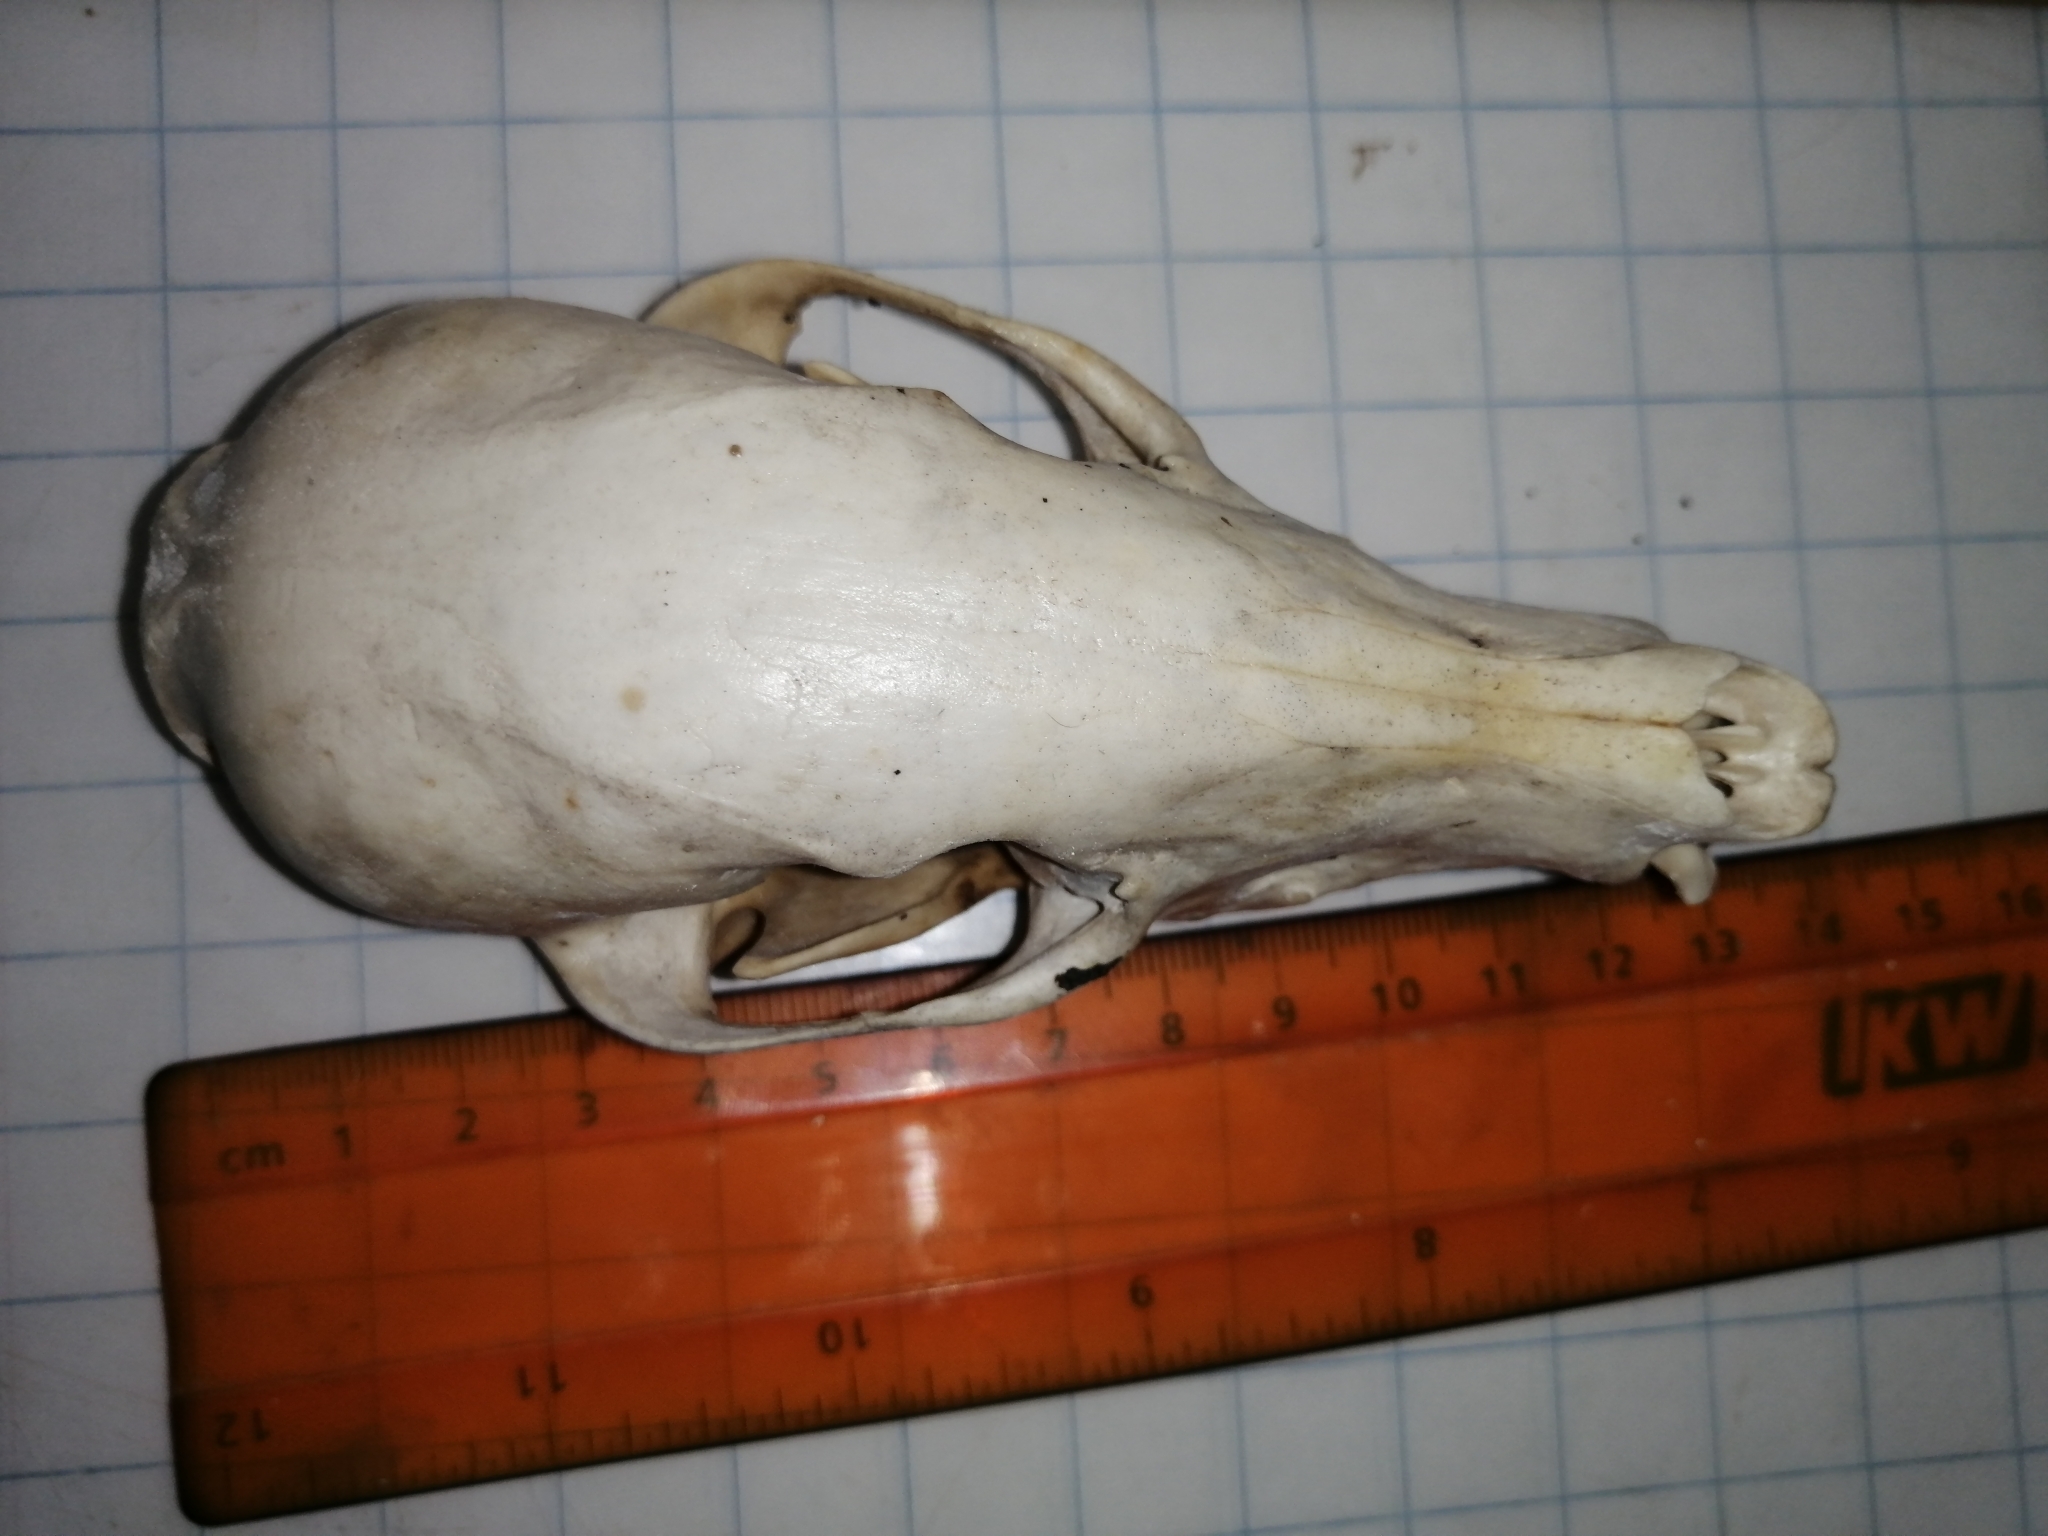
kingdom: Animalia
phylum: Chordata
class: Mammalia
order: Carnivora
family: Procyonidae
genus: Nasua
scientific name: Nasua narica
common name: White-nosed coati
